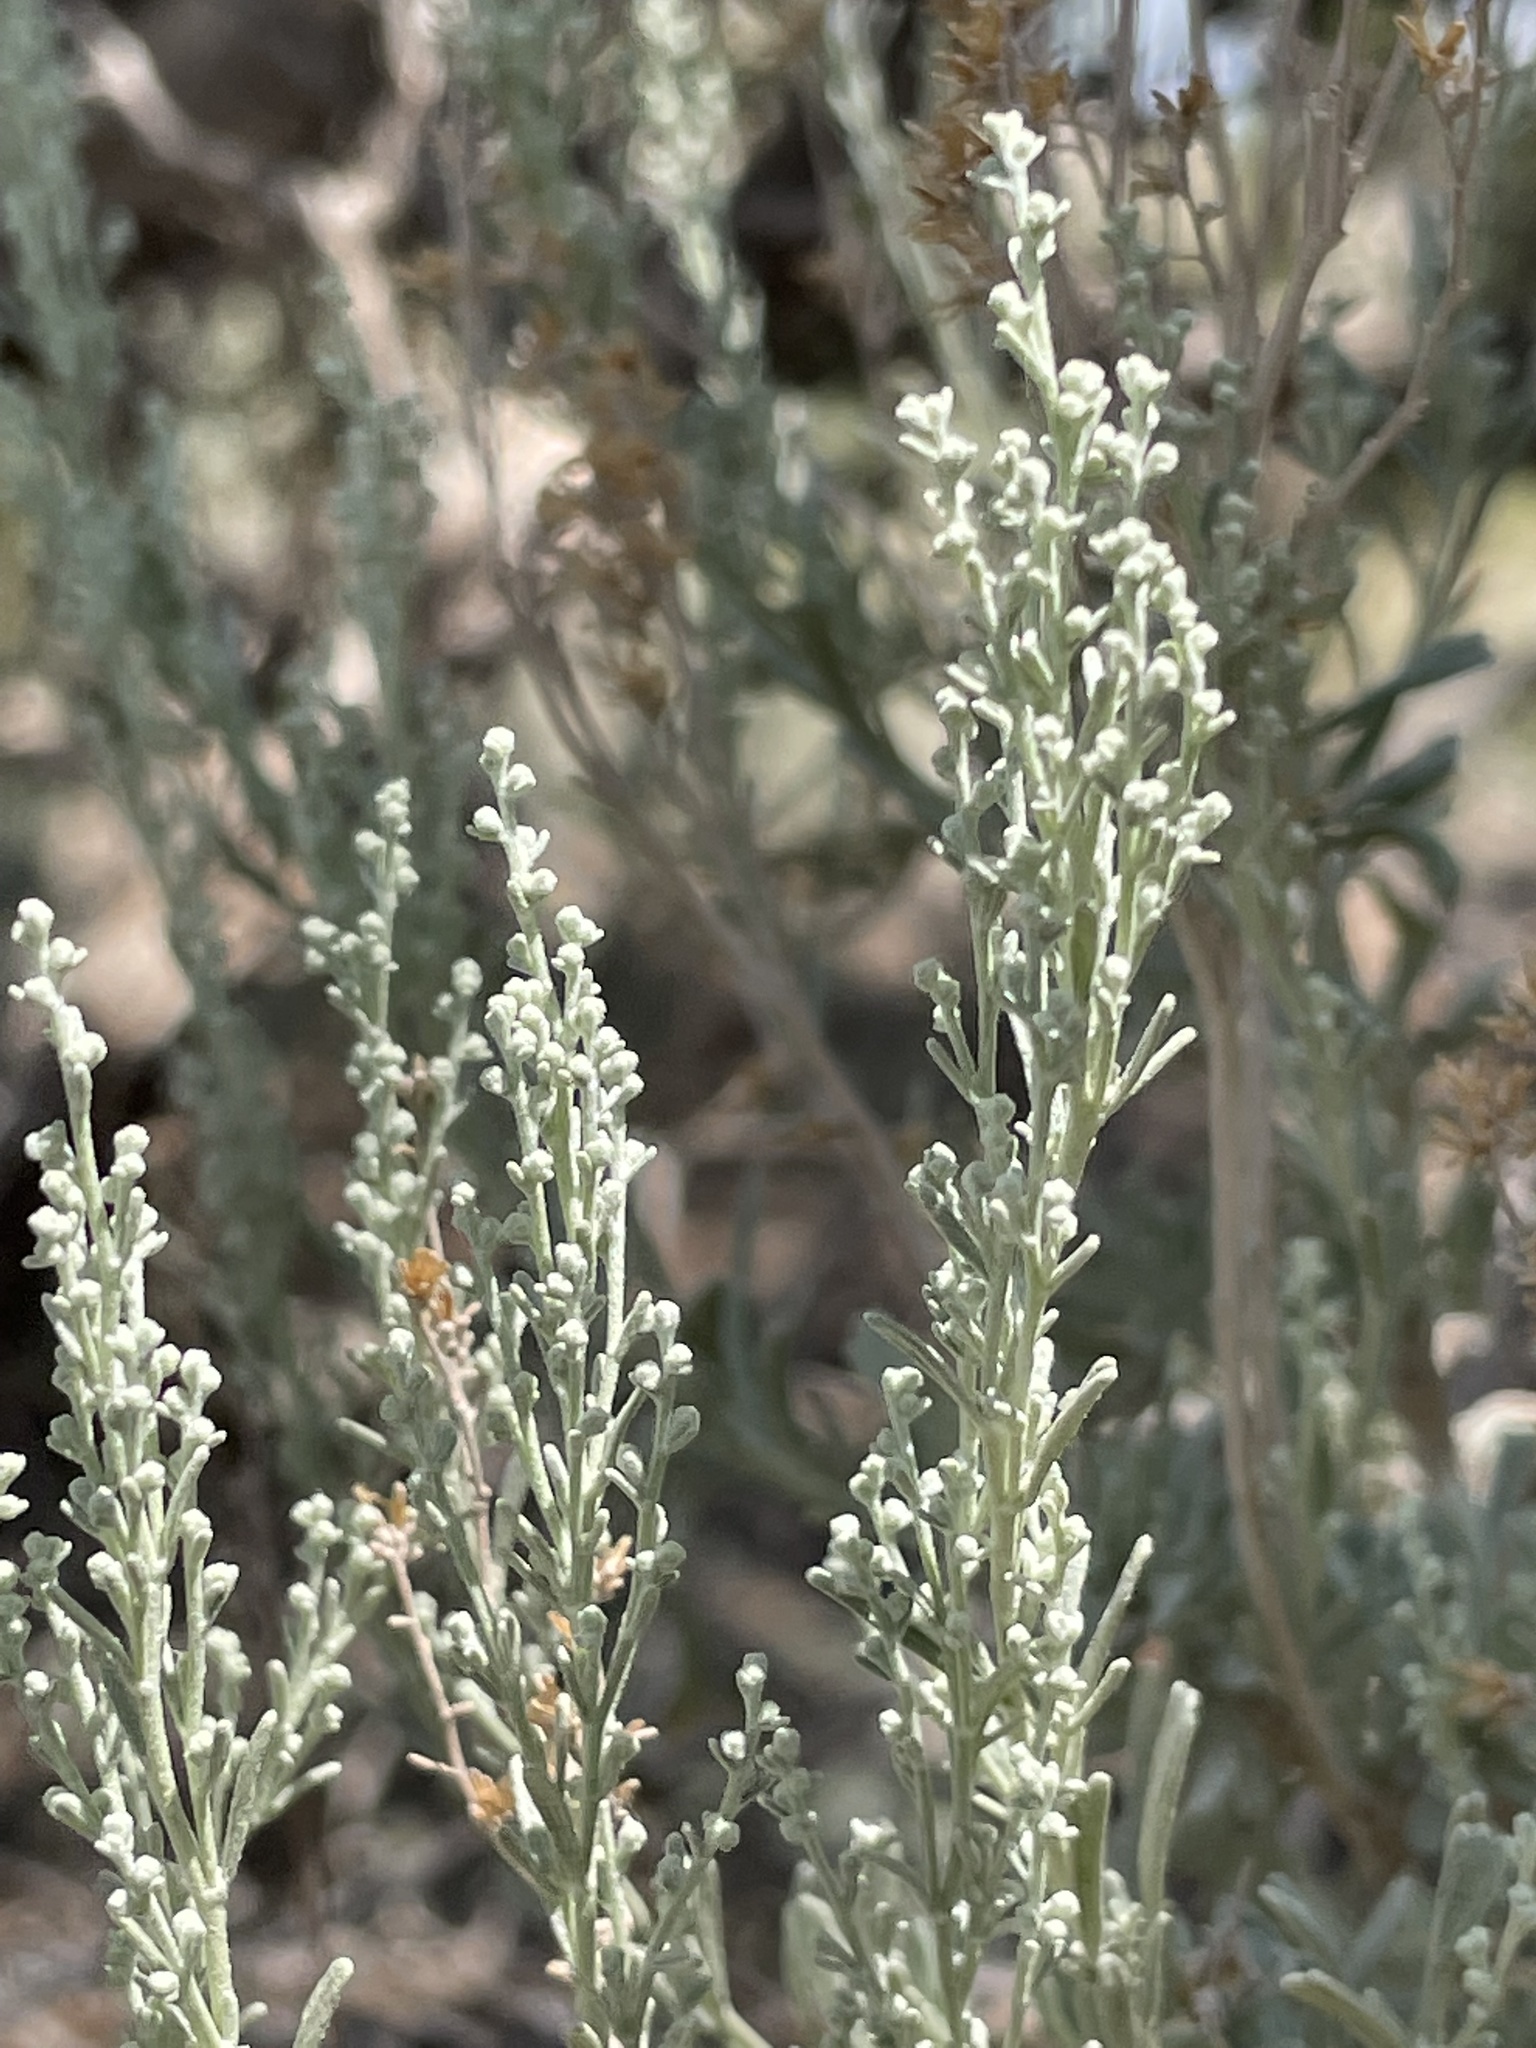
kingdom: Plantae
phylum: Tracheophyta
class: Magnoliopsida
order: Asterales
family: Asteraceae
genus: Artemisia
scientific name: Artemisia tridentata
